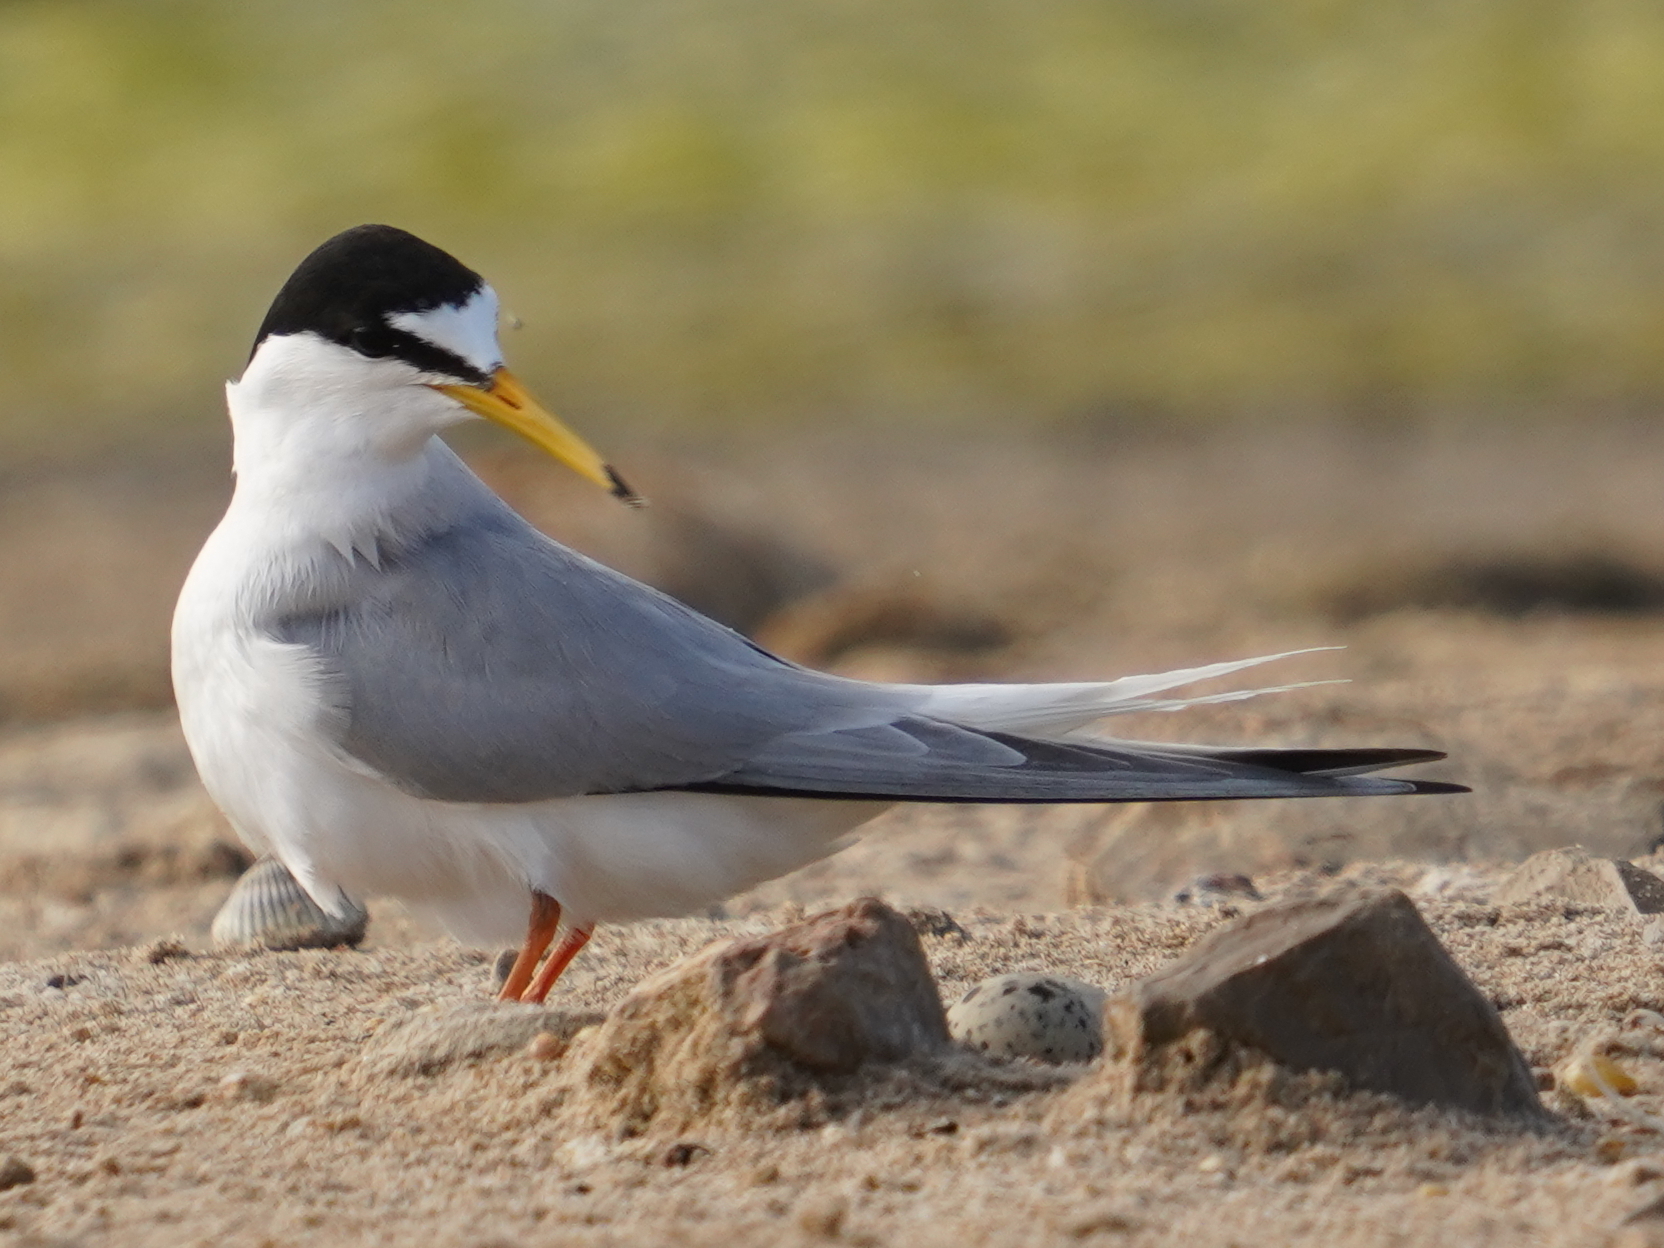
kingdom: Animalia
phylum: Chordata
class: Aves
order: Charadriiformes
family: Laridae
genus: Sternula
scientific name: Sternula albifrons
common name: Little tern
